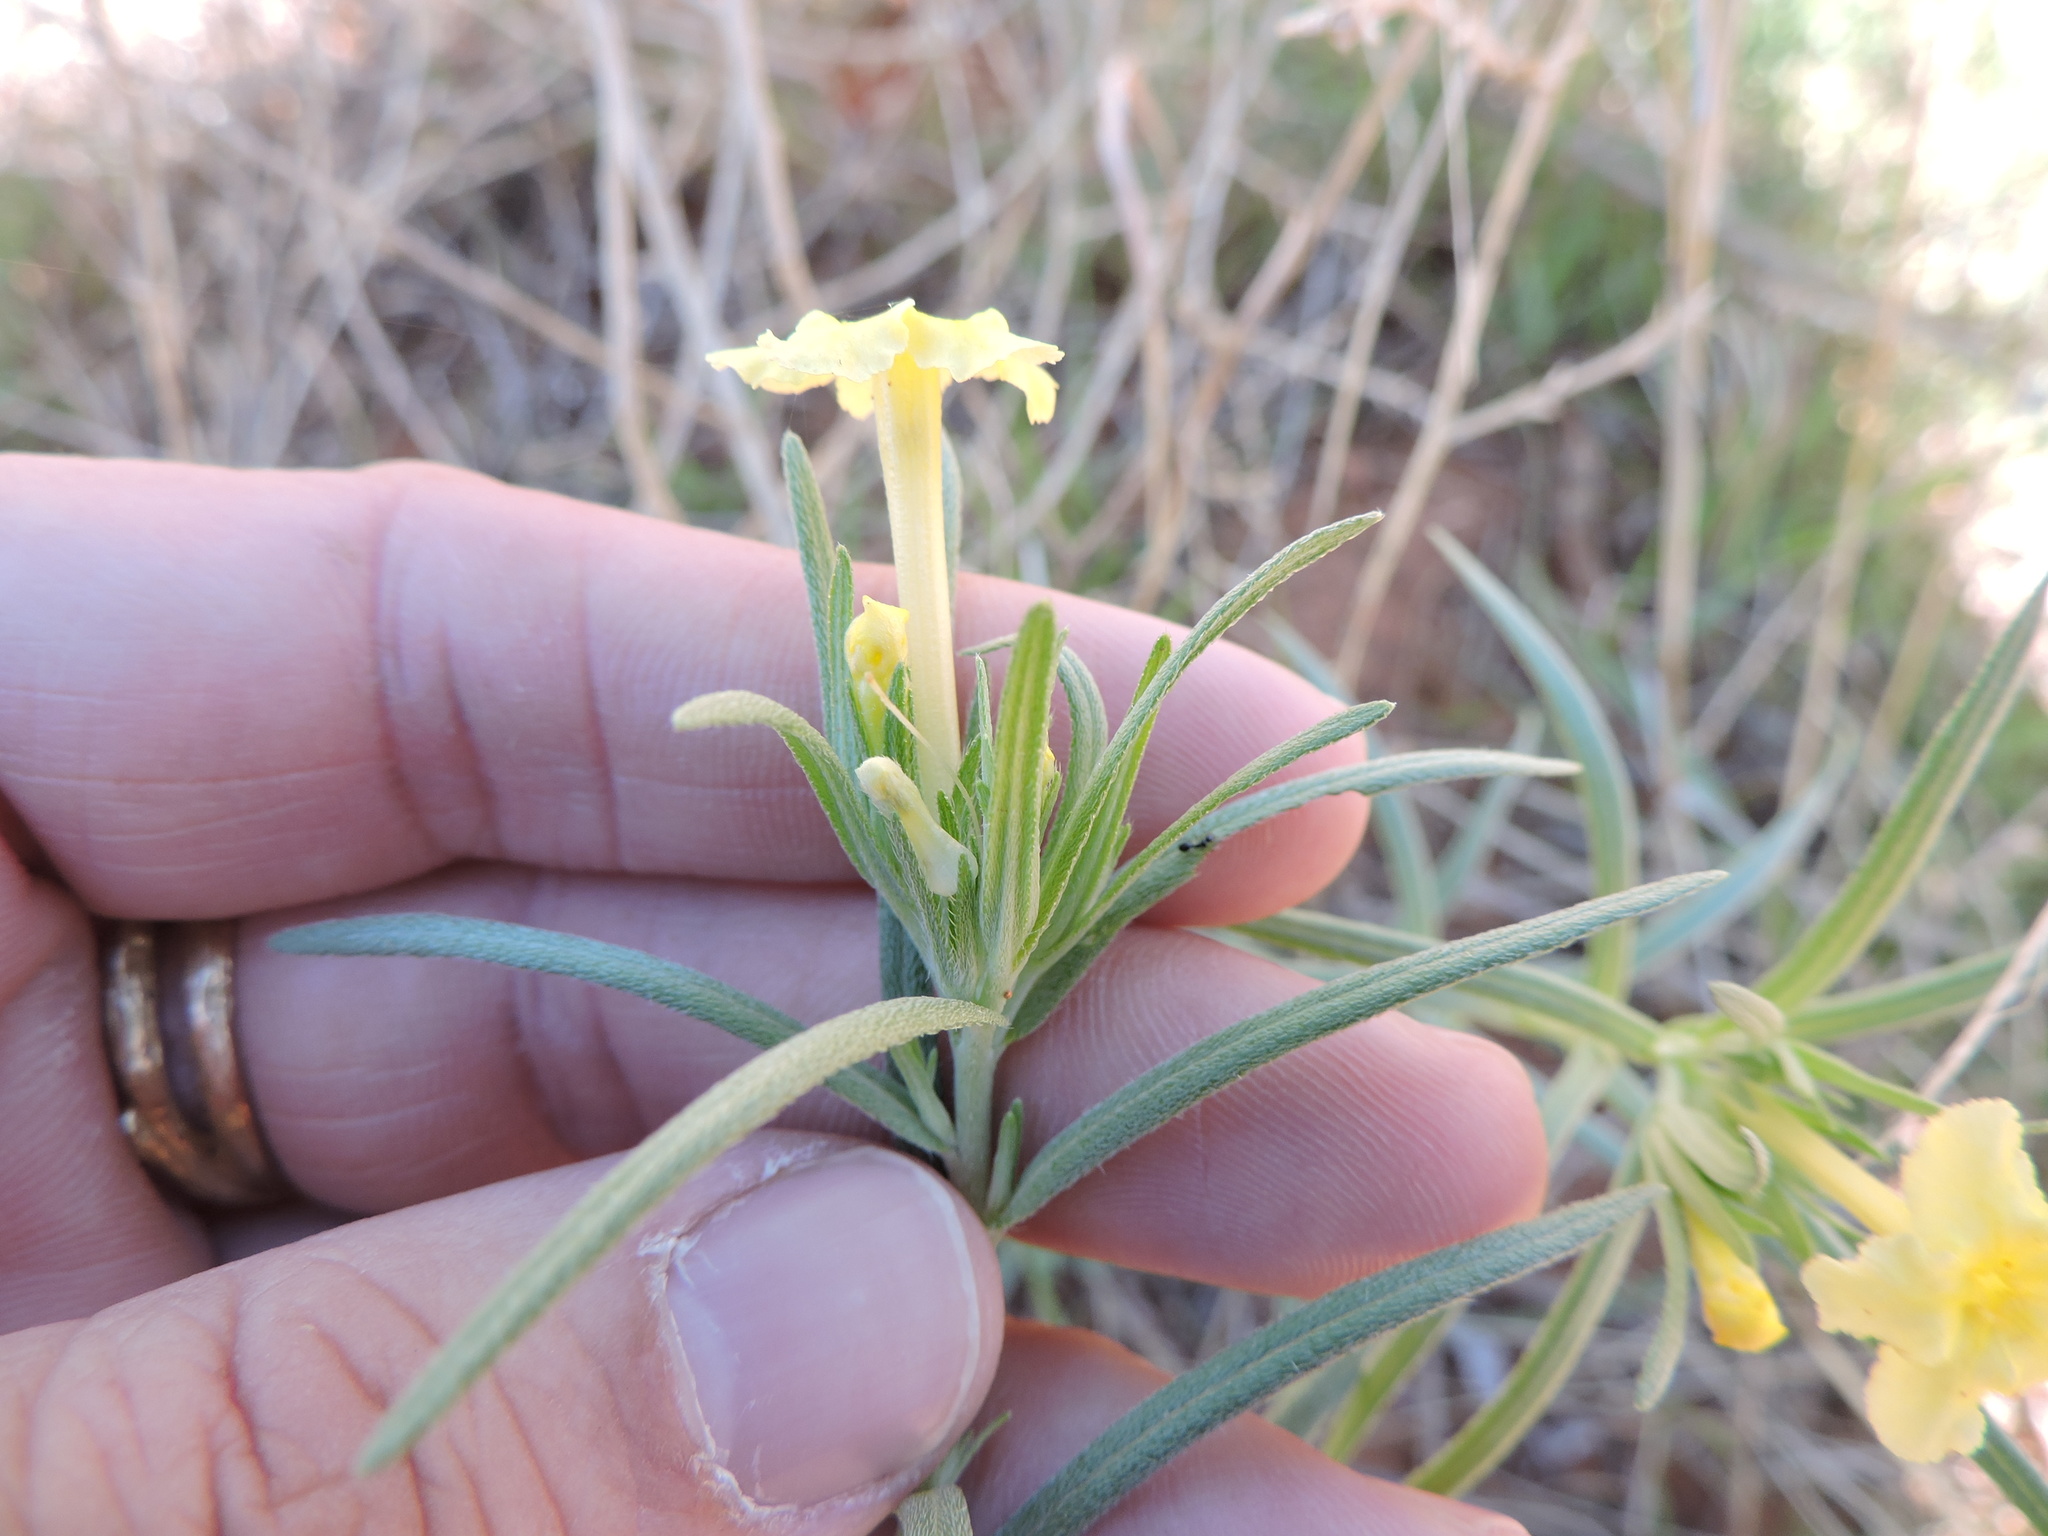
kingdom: Plantae
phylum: Tracheophyta
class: Magnoliopsida
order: Boraginales
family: Boraginaceae
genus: Lithospermum
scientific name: Lithospermum incisum
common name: Fringed gromwell
